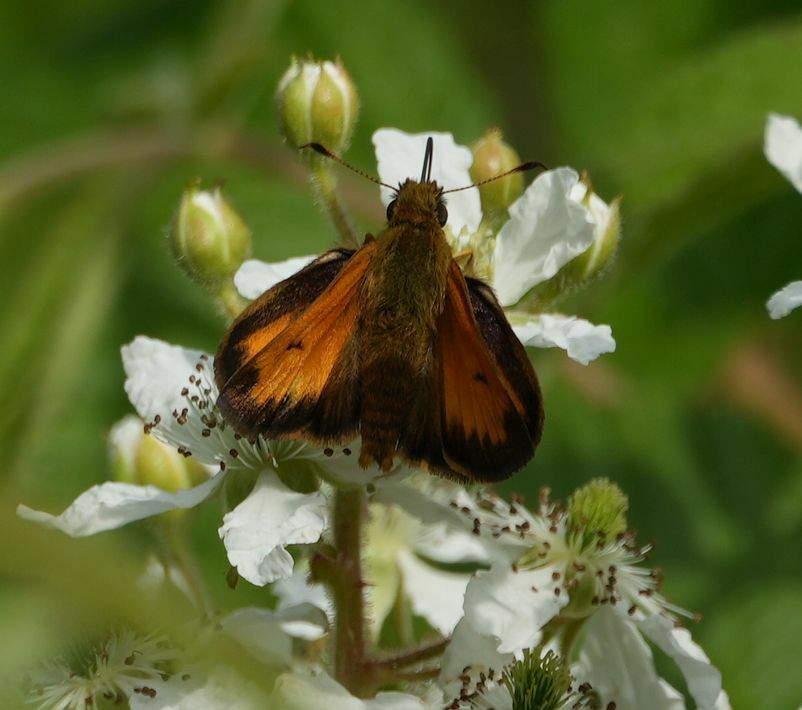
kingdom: Animalia
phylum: Arthropoda
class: Insecta
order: Lepidoptera
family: Hesperiidae
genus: Lon
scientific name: Lon hobomok
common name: Hobomok skipper
